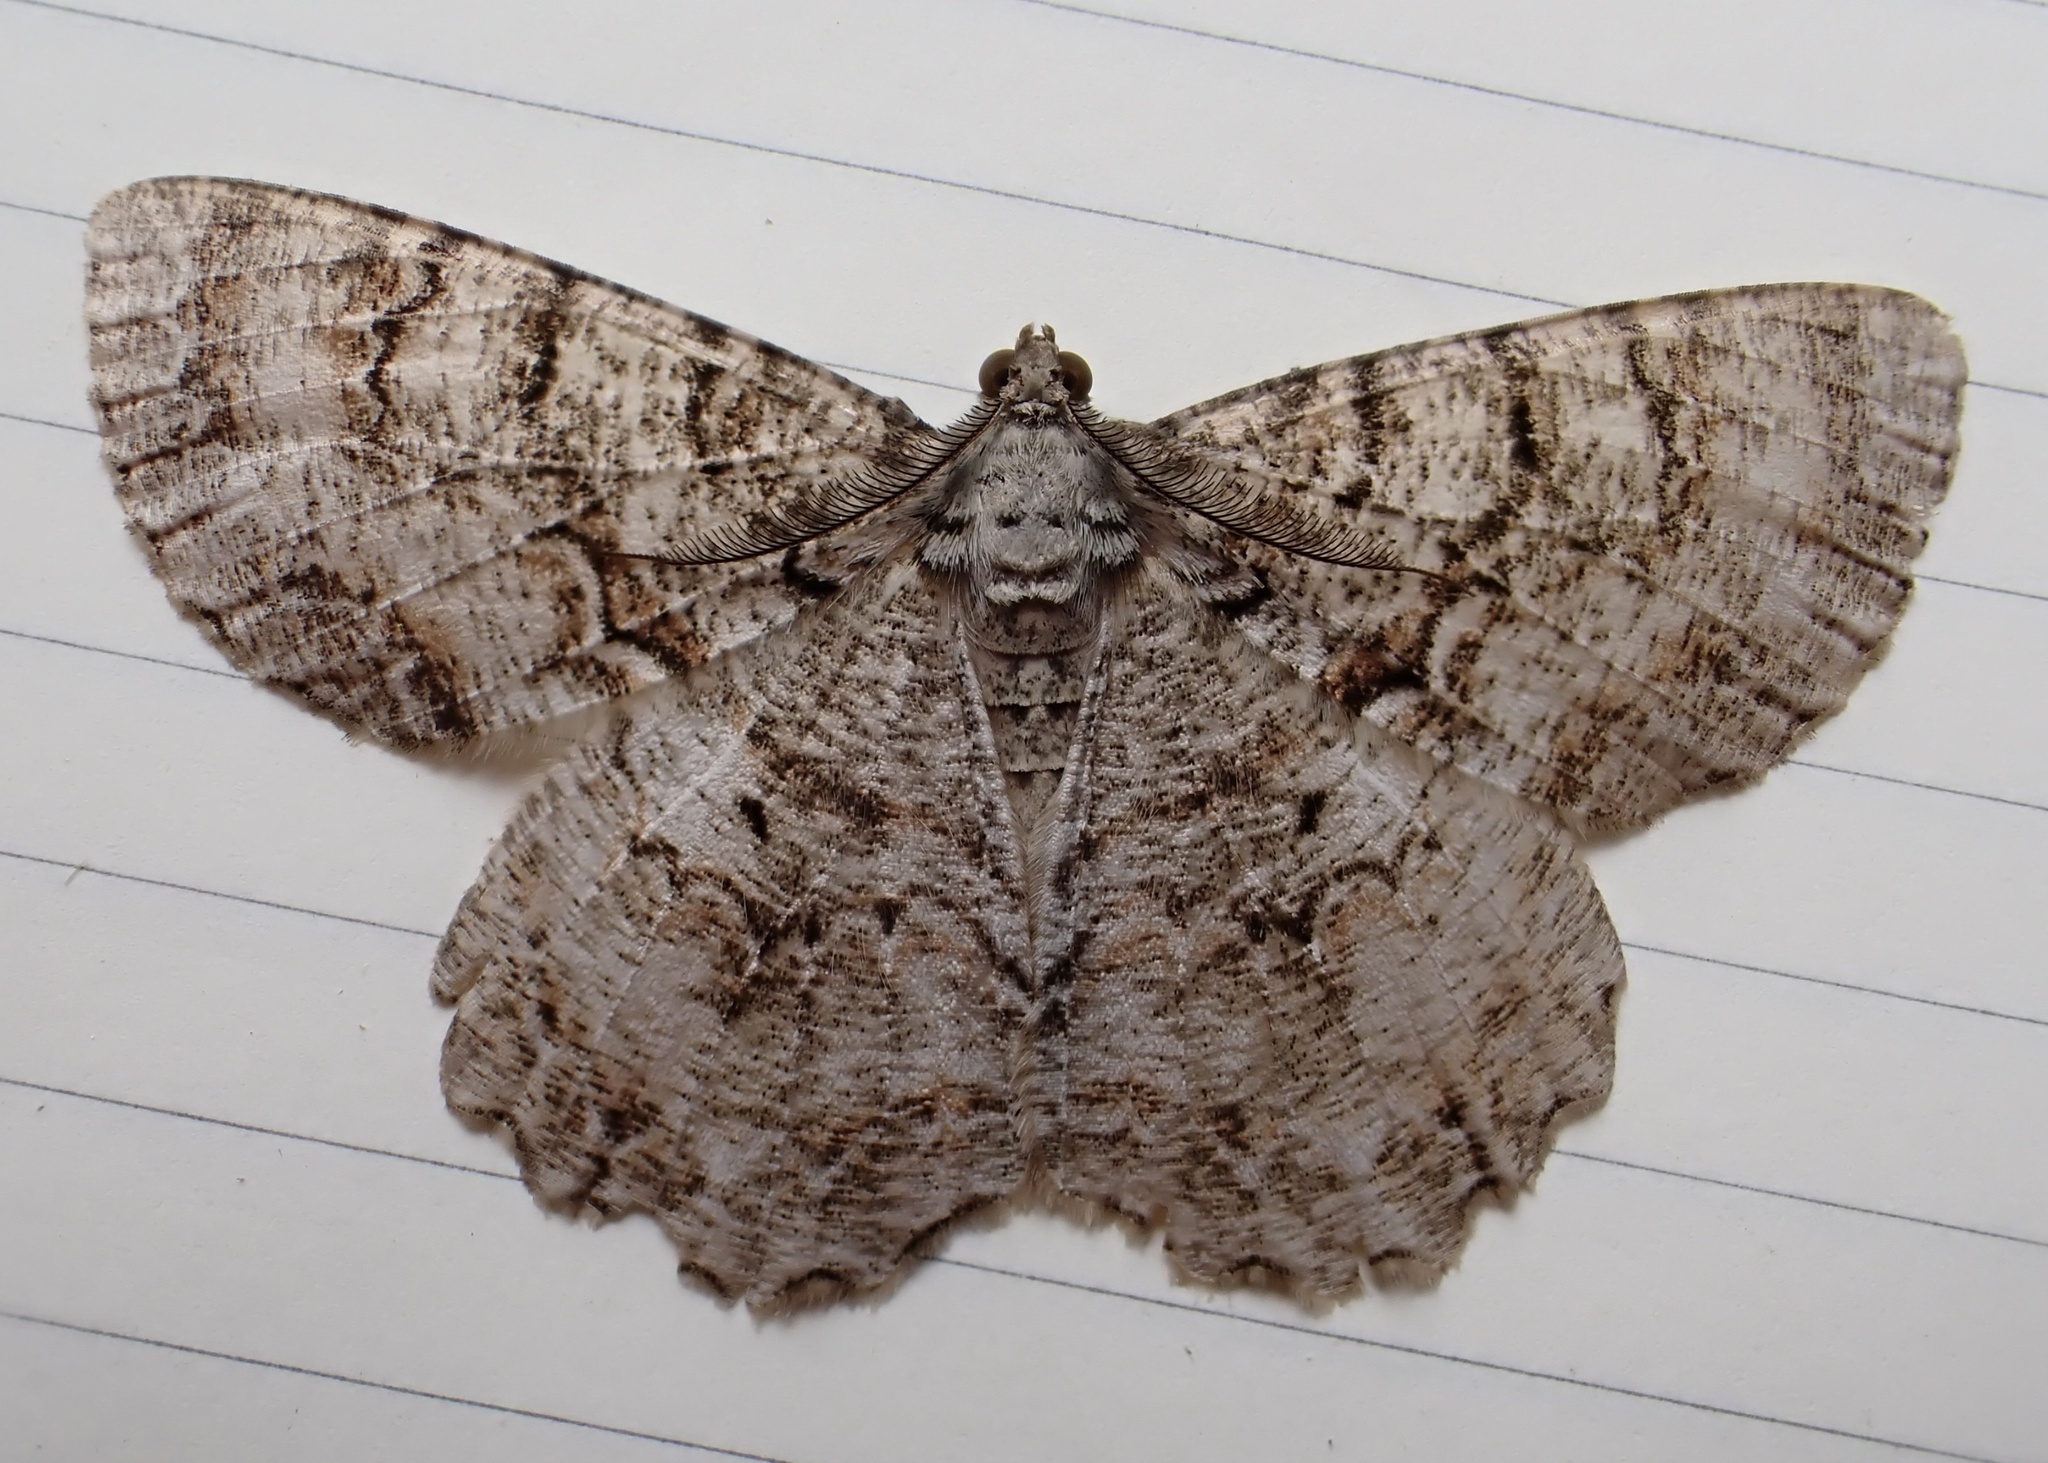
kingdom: Animalia
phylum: Arthropoda
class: Insecta
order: Lepidoptera
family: Geometridae
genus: Epimecis
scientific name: Epimecis hortaria
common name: Tulip-tree beauty
